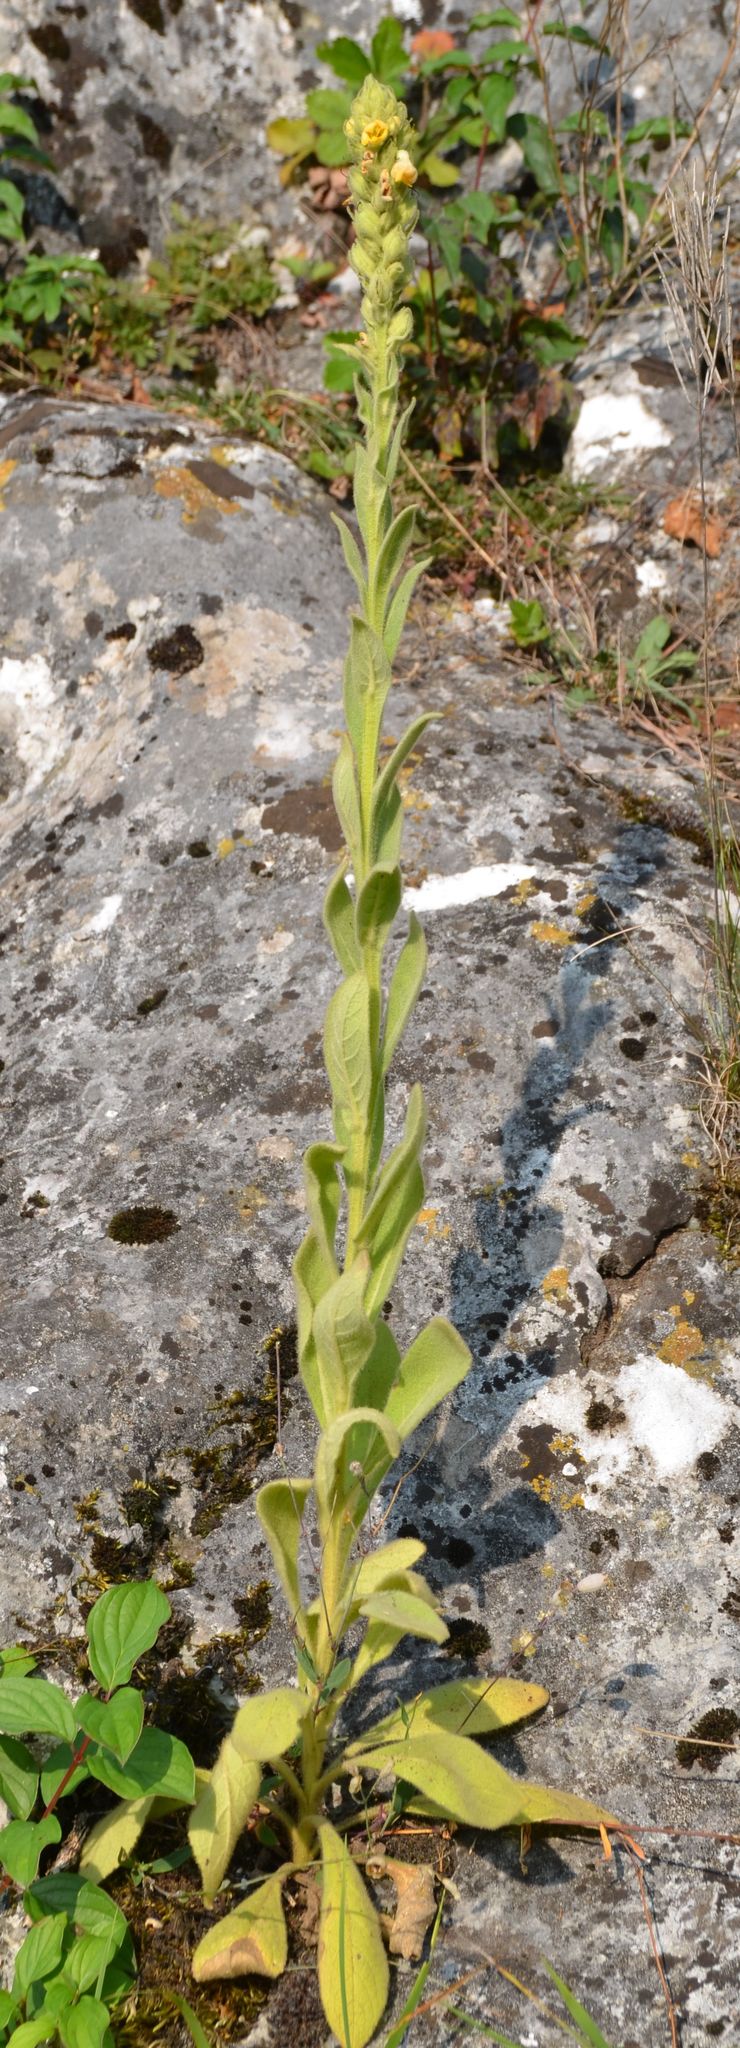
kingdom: Plantae
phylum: Tracheophyta
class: Magnoliopsida
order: Lamiales
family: Scrophulariaceae
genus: Verbascum
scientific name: Verbascum thapsus
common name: Common mullein
